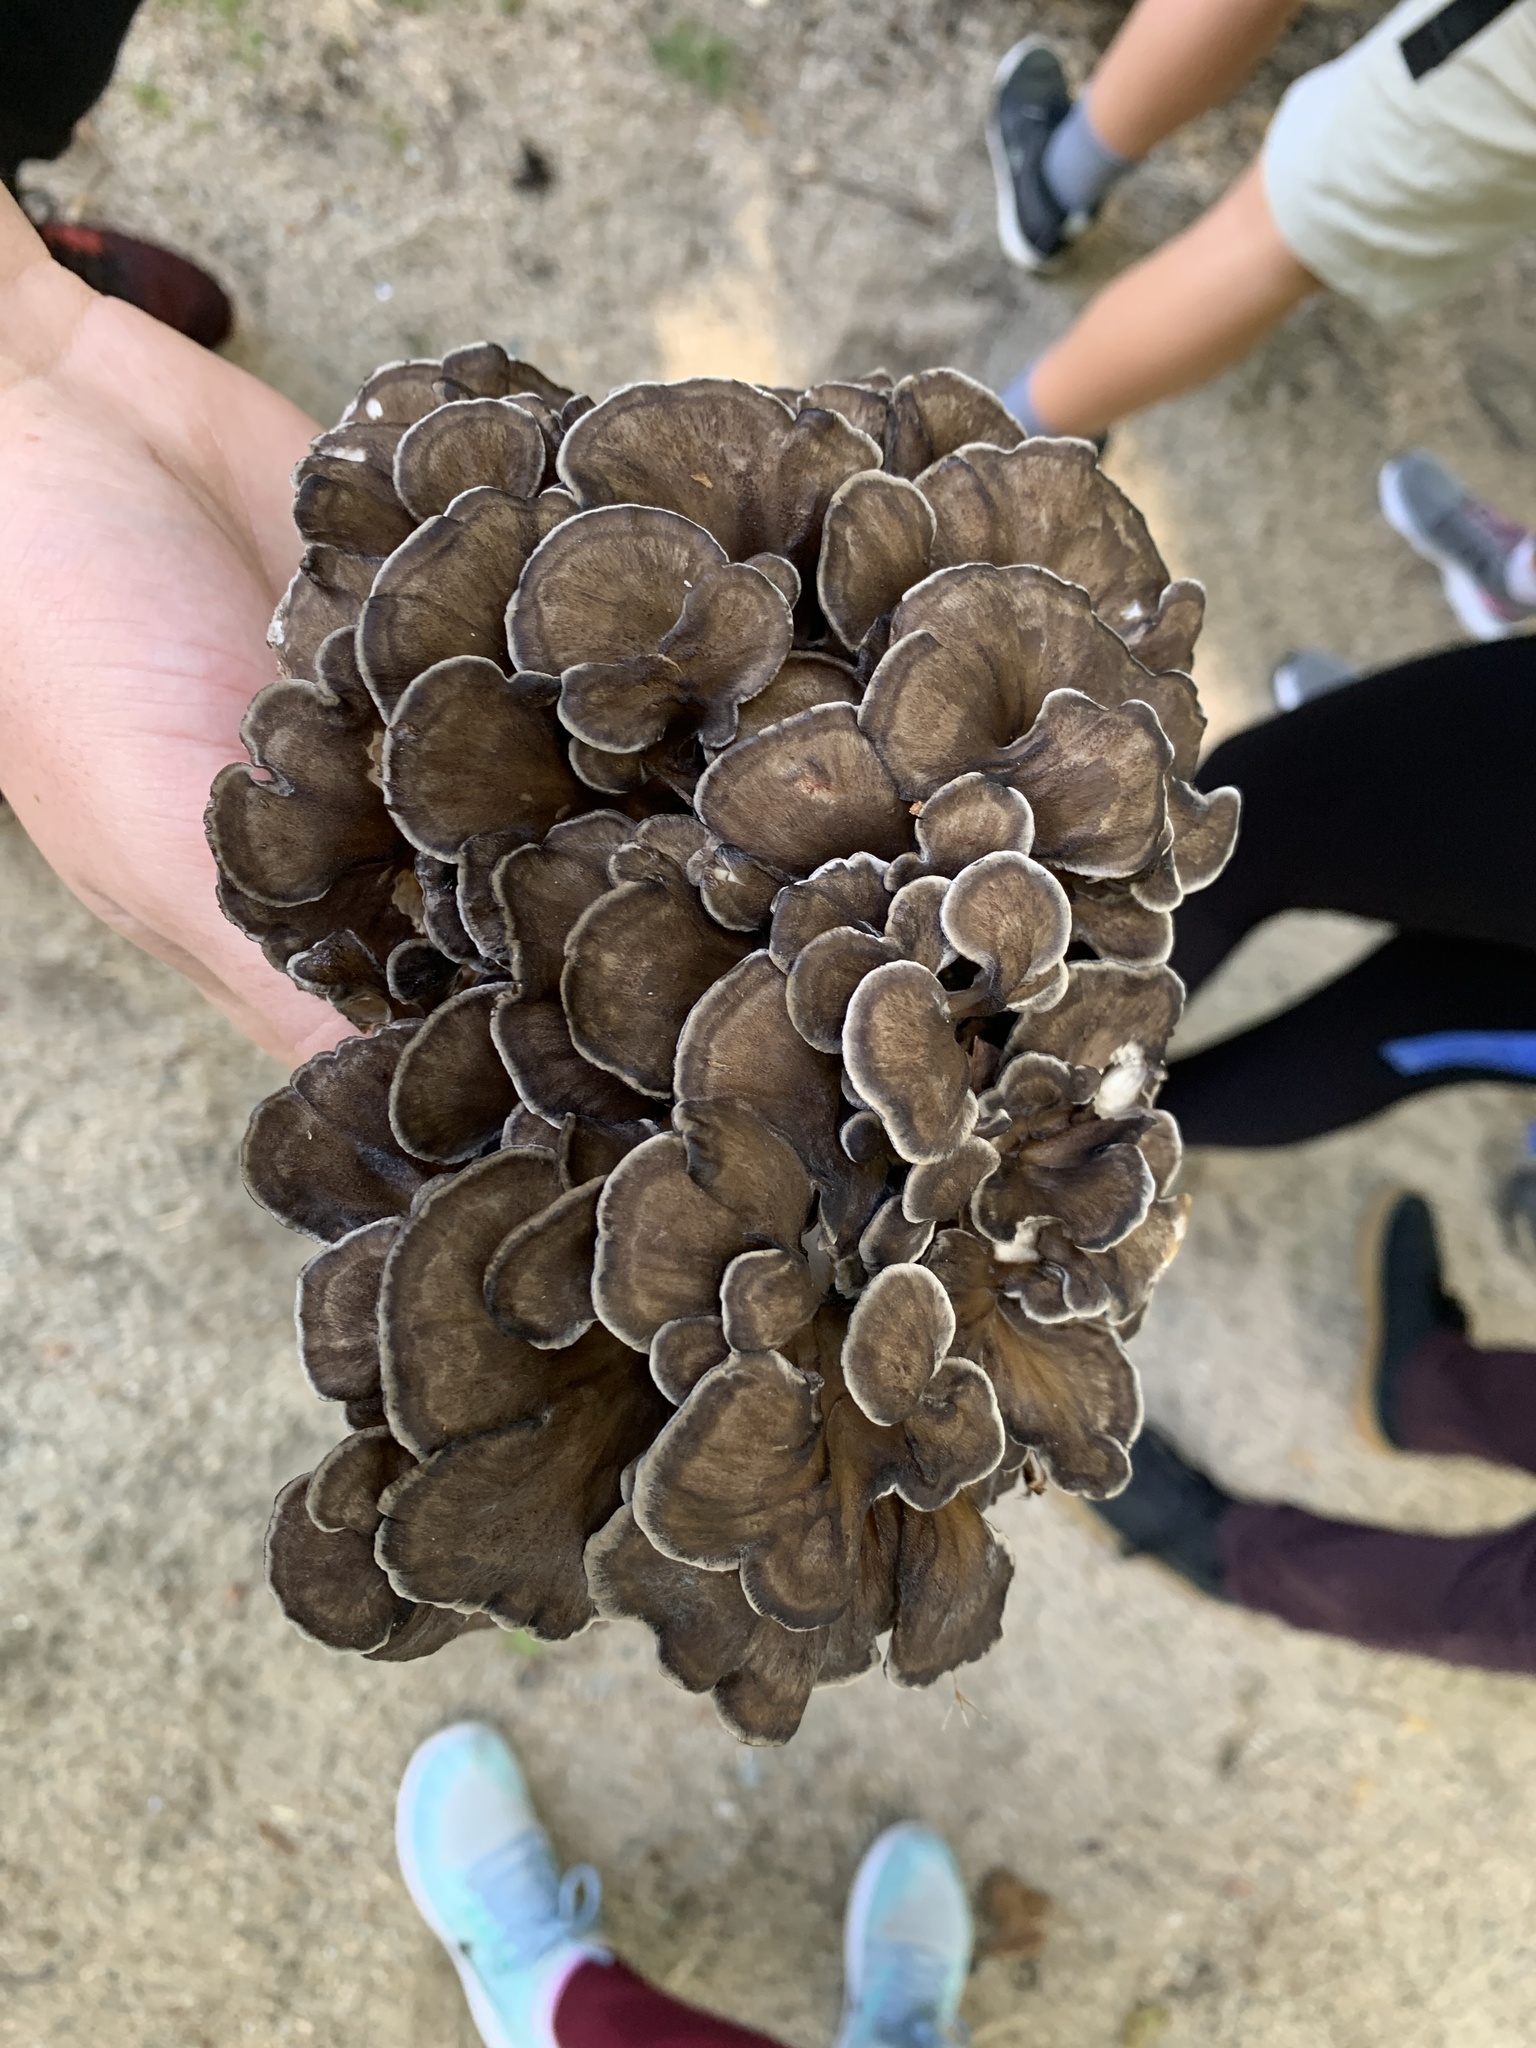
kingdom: Fungi
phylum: Basidiomycota
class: Agaricomycetes
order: Polyporales
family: Grifolaceae
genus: Grifola
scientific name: Grifola frondosa
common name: Hen of the woods
